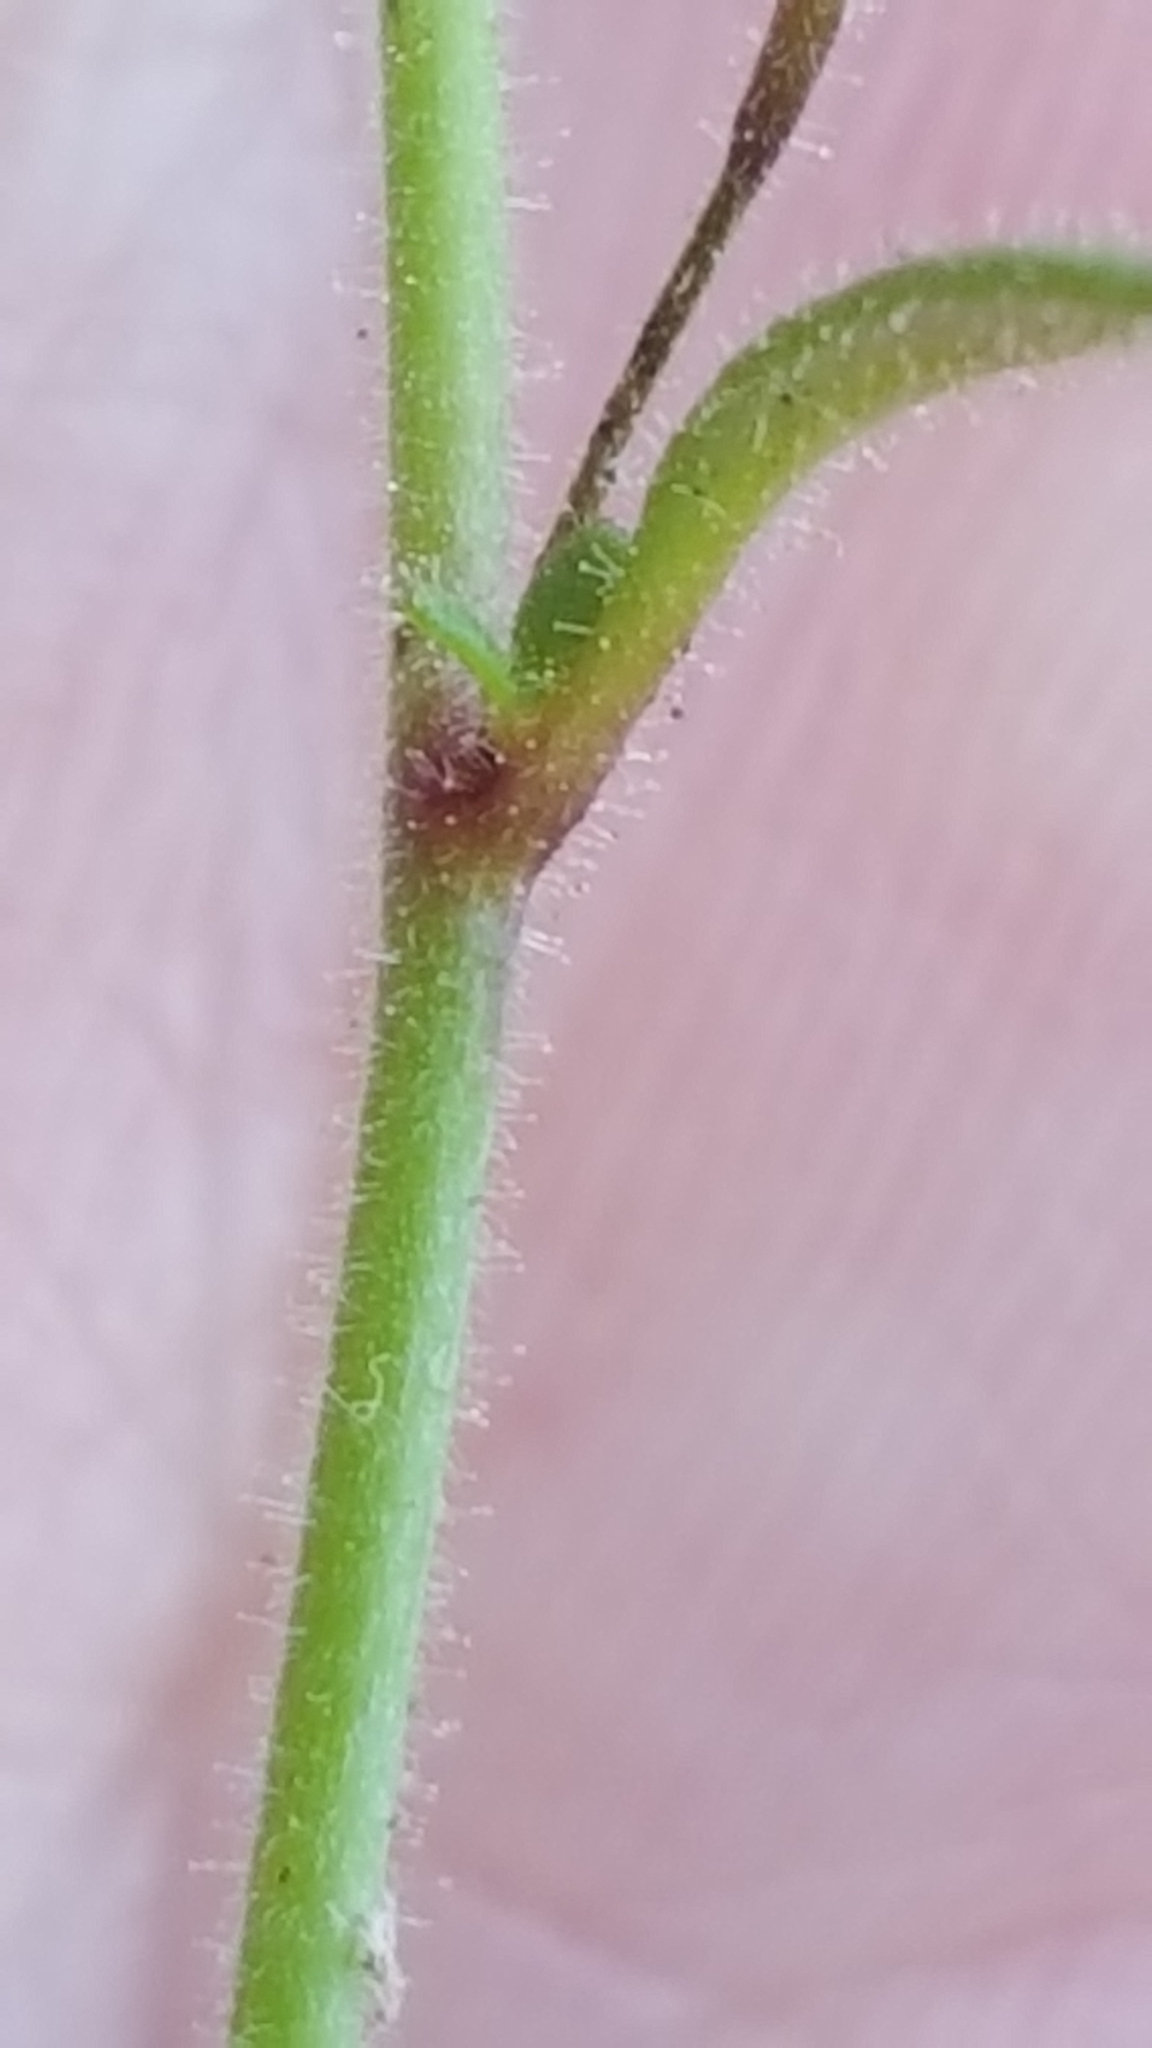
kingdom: Plantae
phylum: Tracheophyta
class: Magnoliopsida
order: Lamiales
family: Plantaginaceae
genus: Chaenorhinum
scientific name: Chaenorhinum minus
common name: Dwarf snapdragon
